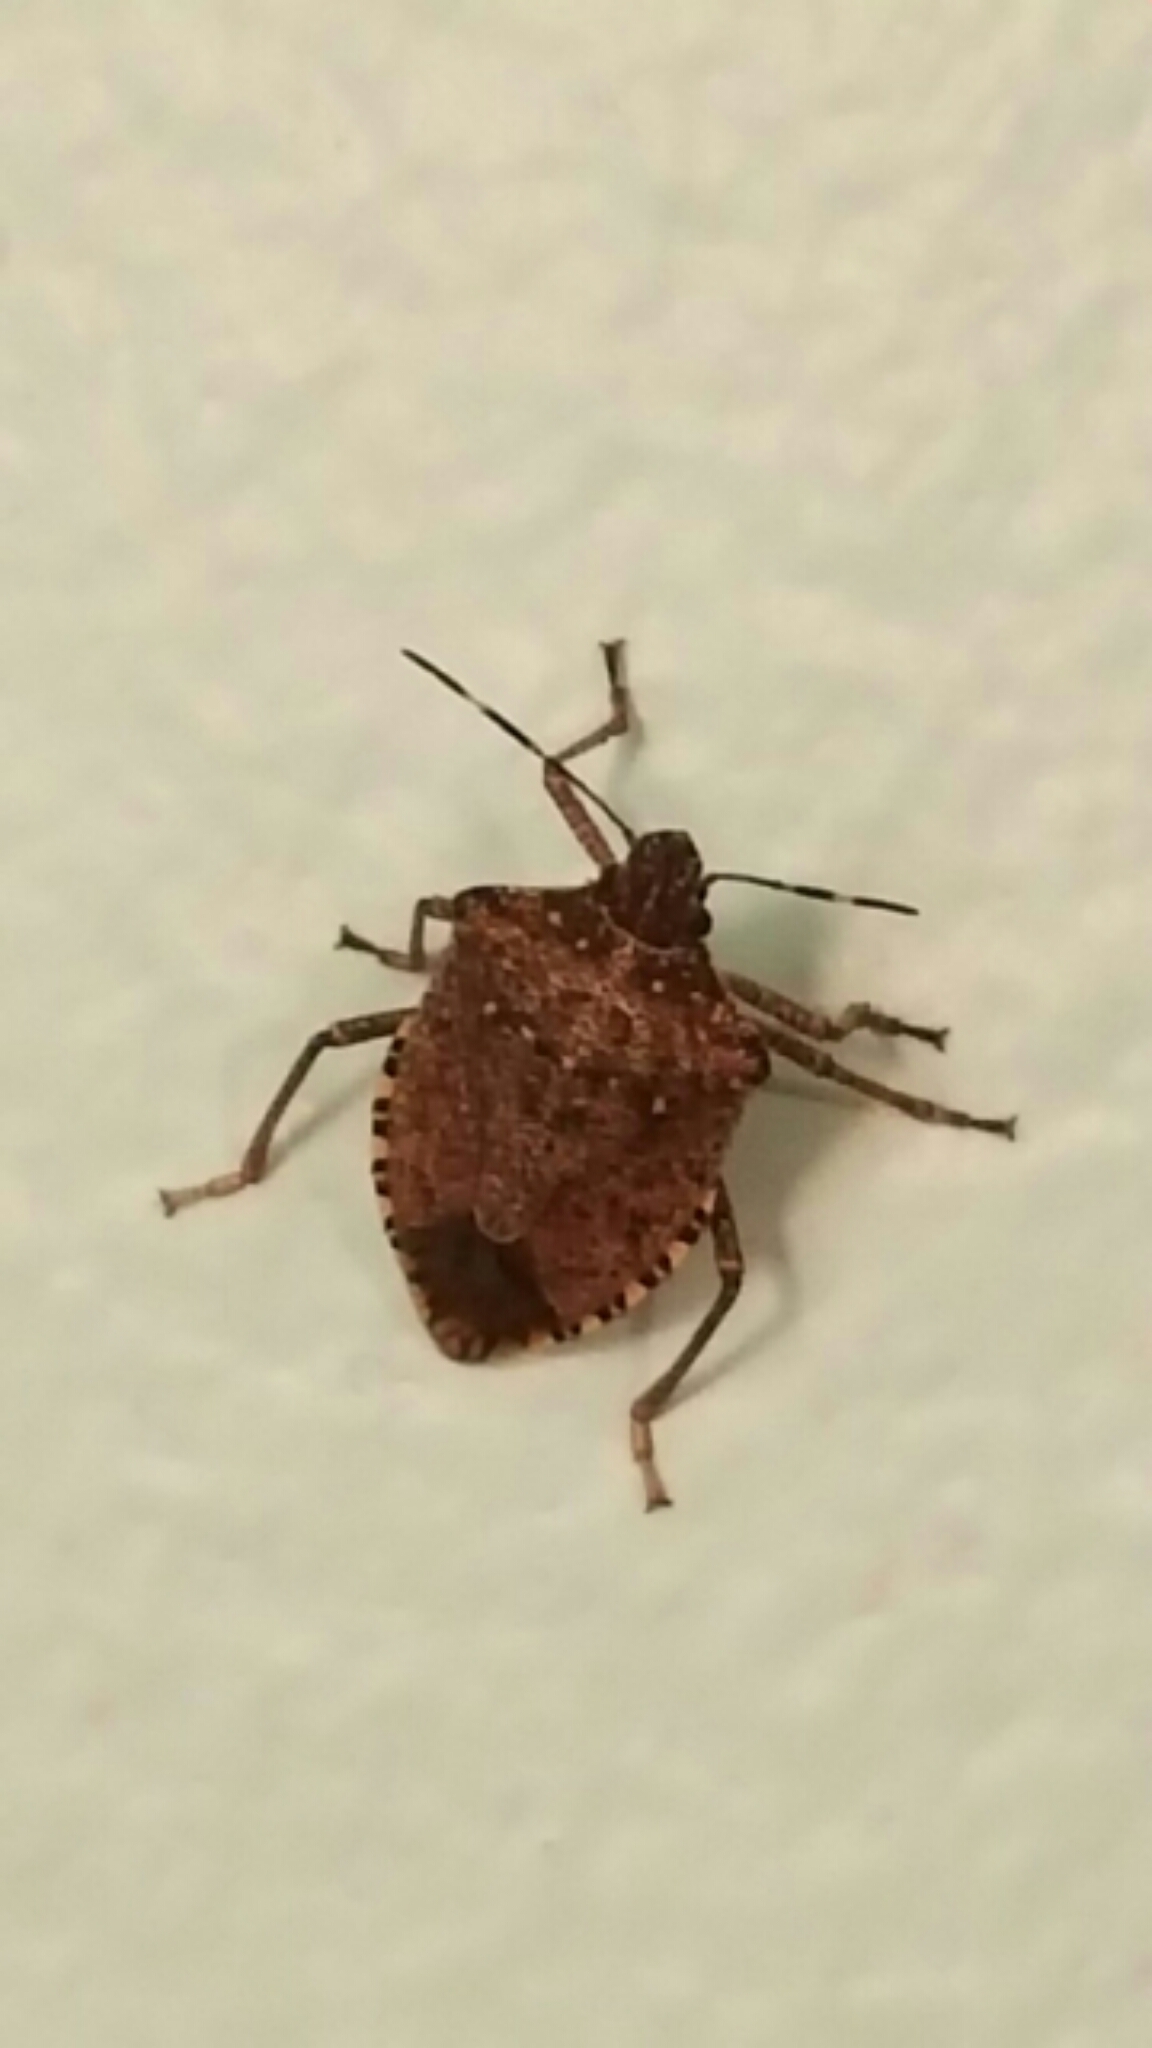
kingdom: Animalia
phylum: Arthropoda
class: Insecta
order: Hemiptera
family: Pentatomidae
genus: Halyomorpha
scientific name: Halyomorpha halys
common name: Brown marmorated stink bug
